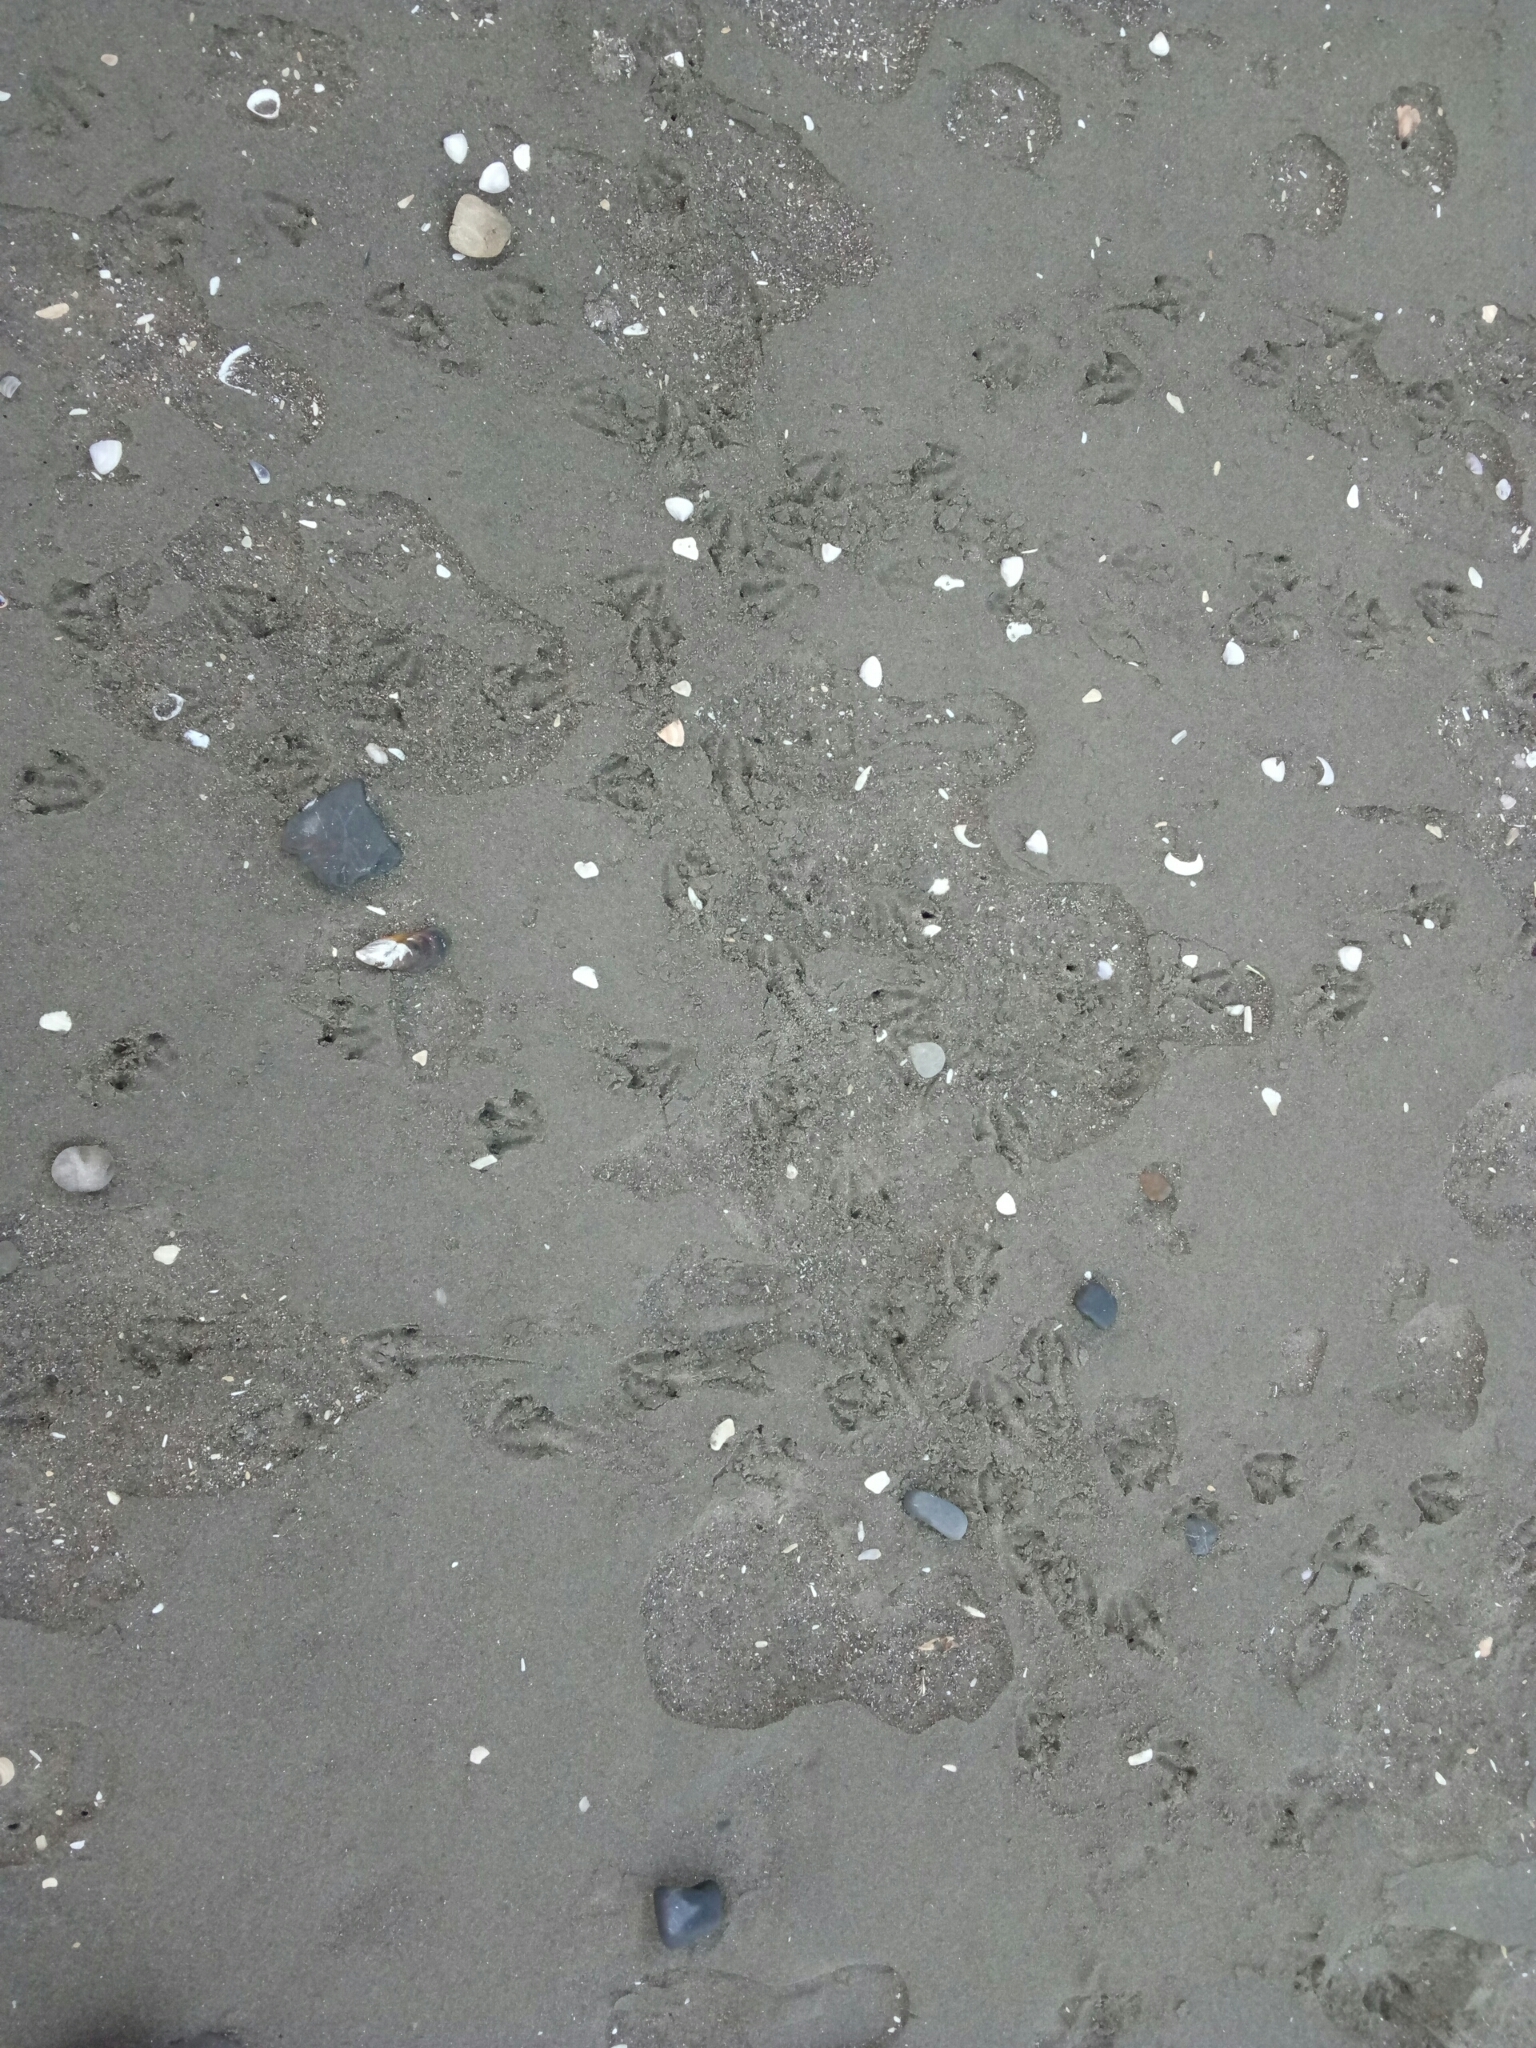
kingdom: Animalia
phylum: Chordata
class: Aves
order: Sphenisciformes
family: Spheniscidae
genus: Eudyptula
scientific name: Eudyptula minor
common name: Little penguin
